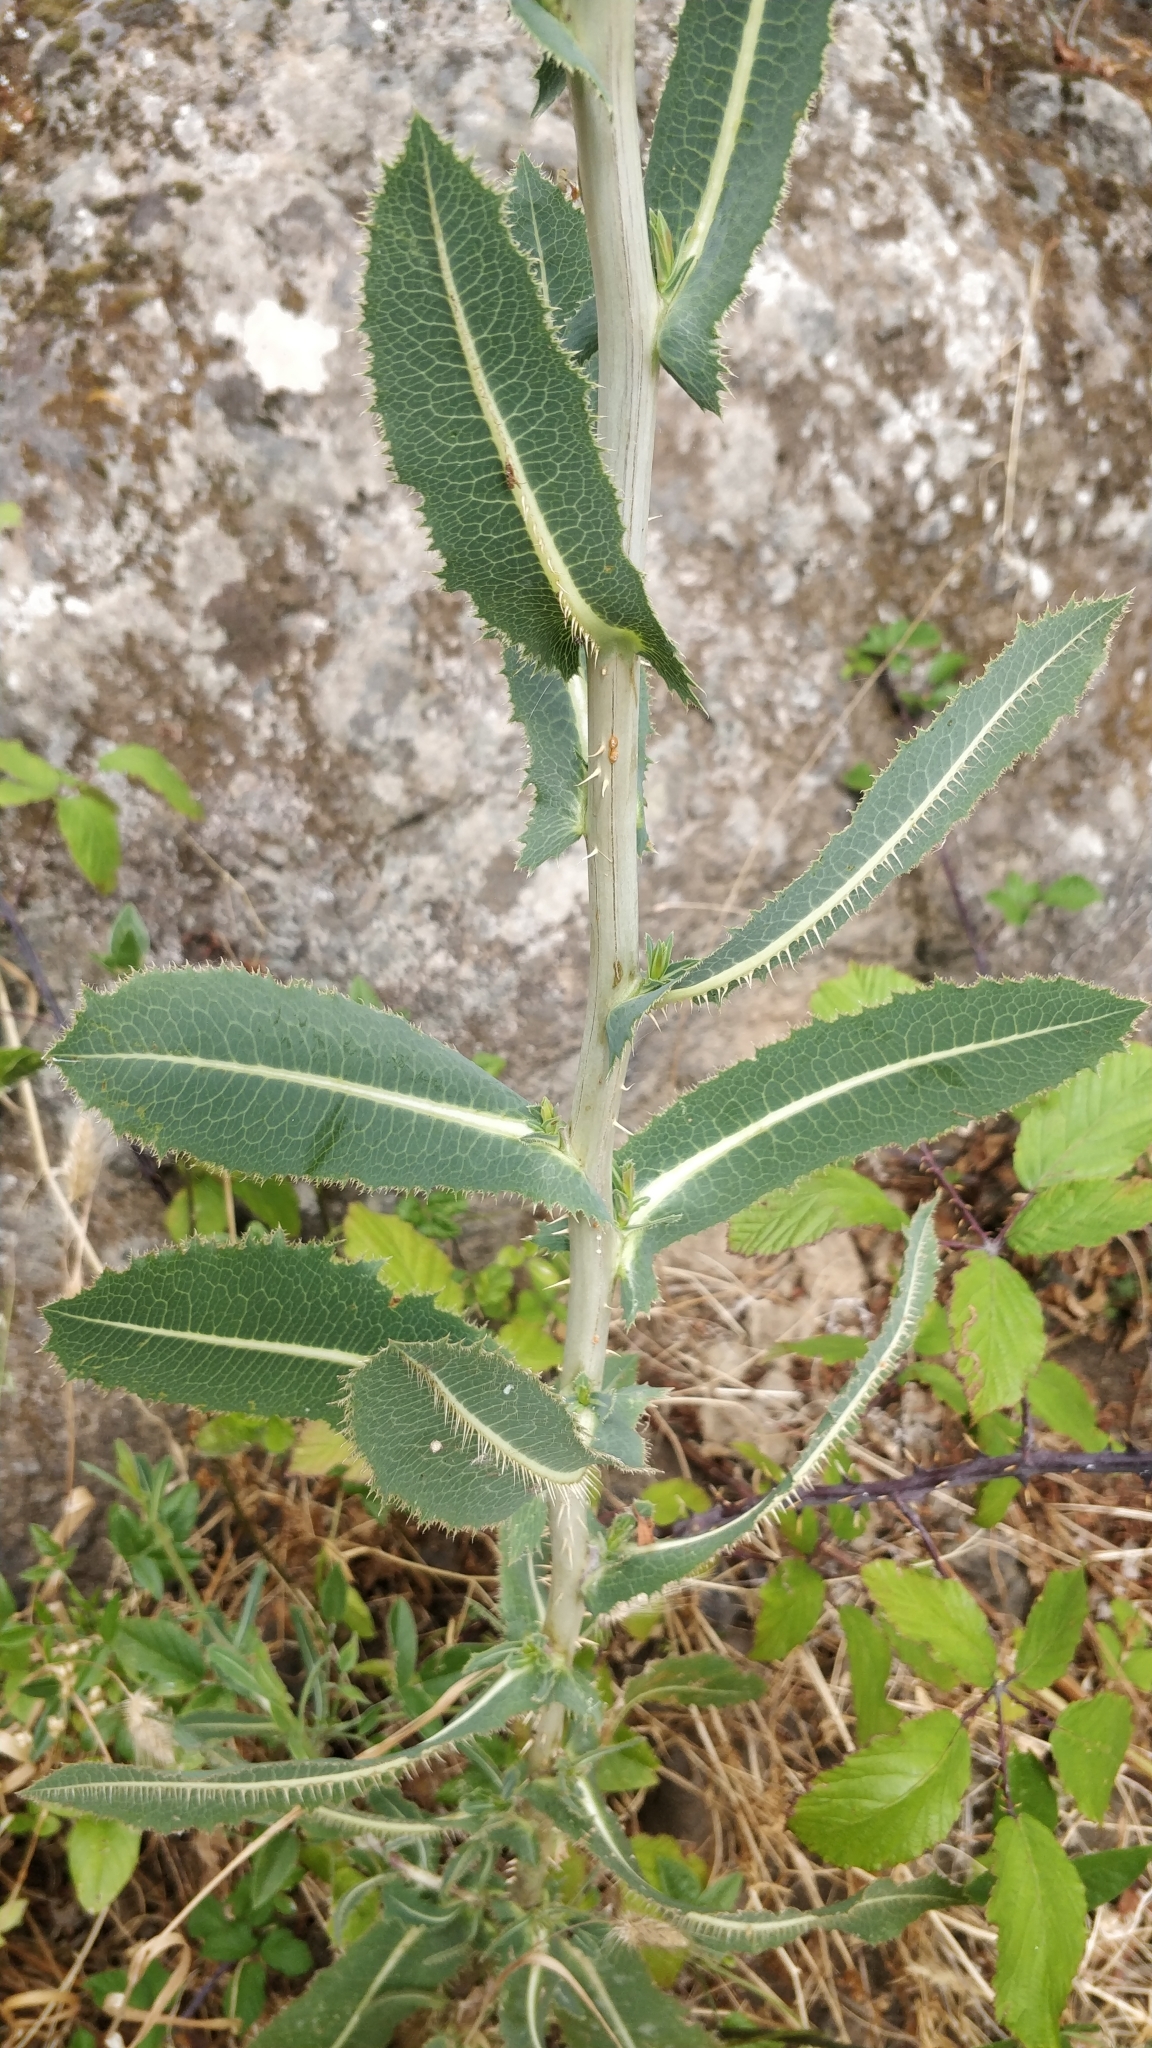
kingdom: Plantae
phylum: Tracheophyta
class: Magnoliopsida
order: Asterales
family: Asteraceae
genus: Lactuca
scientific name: Lactuca serriola
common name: Prickly lettuce
